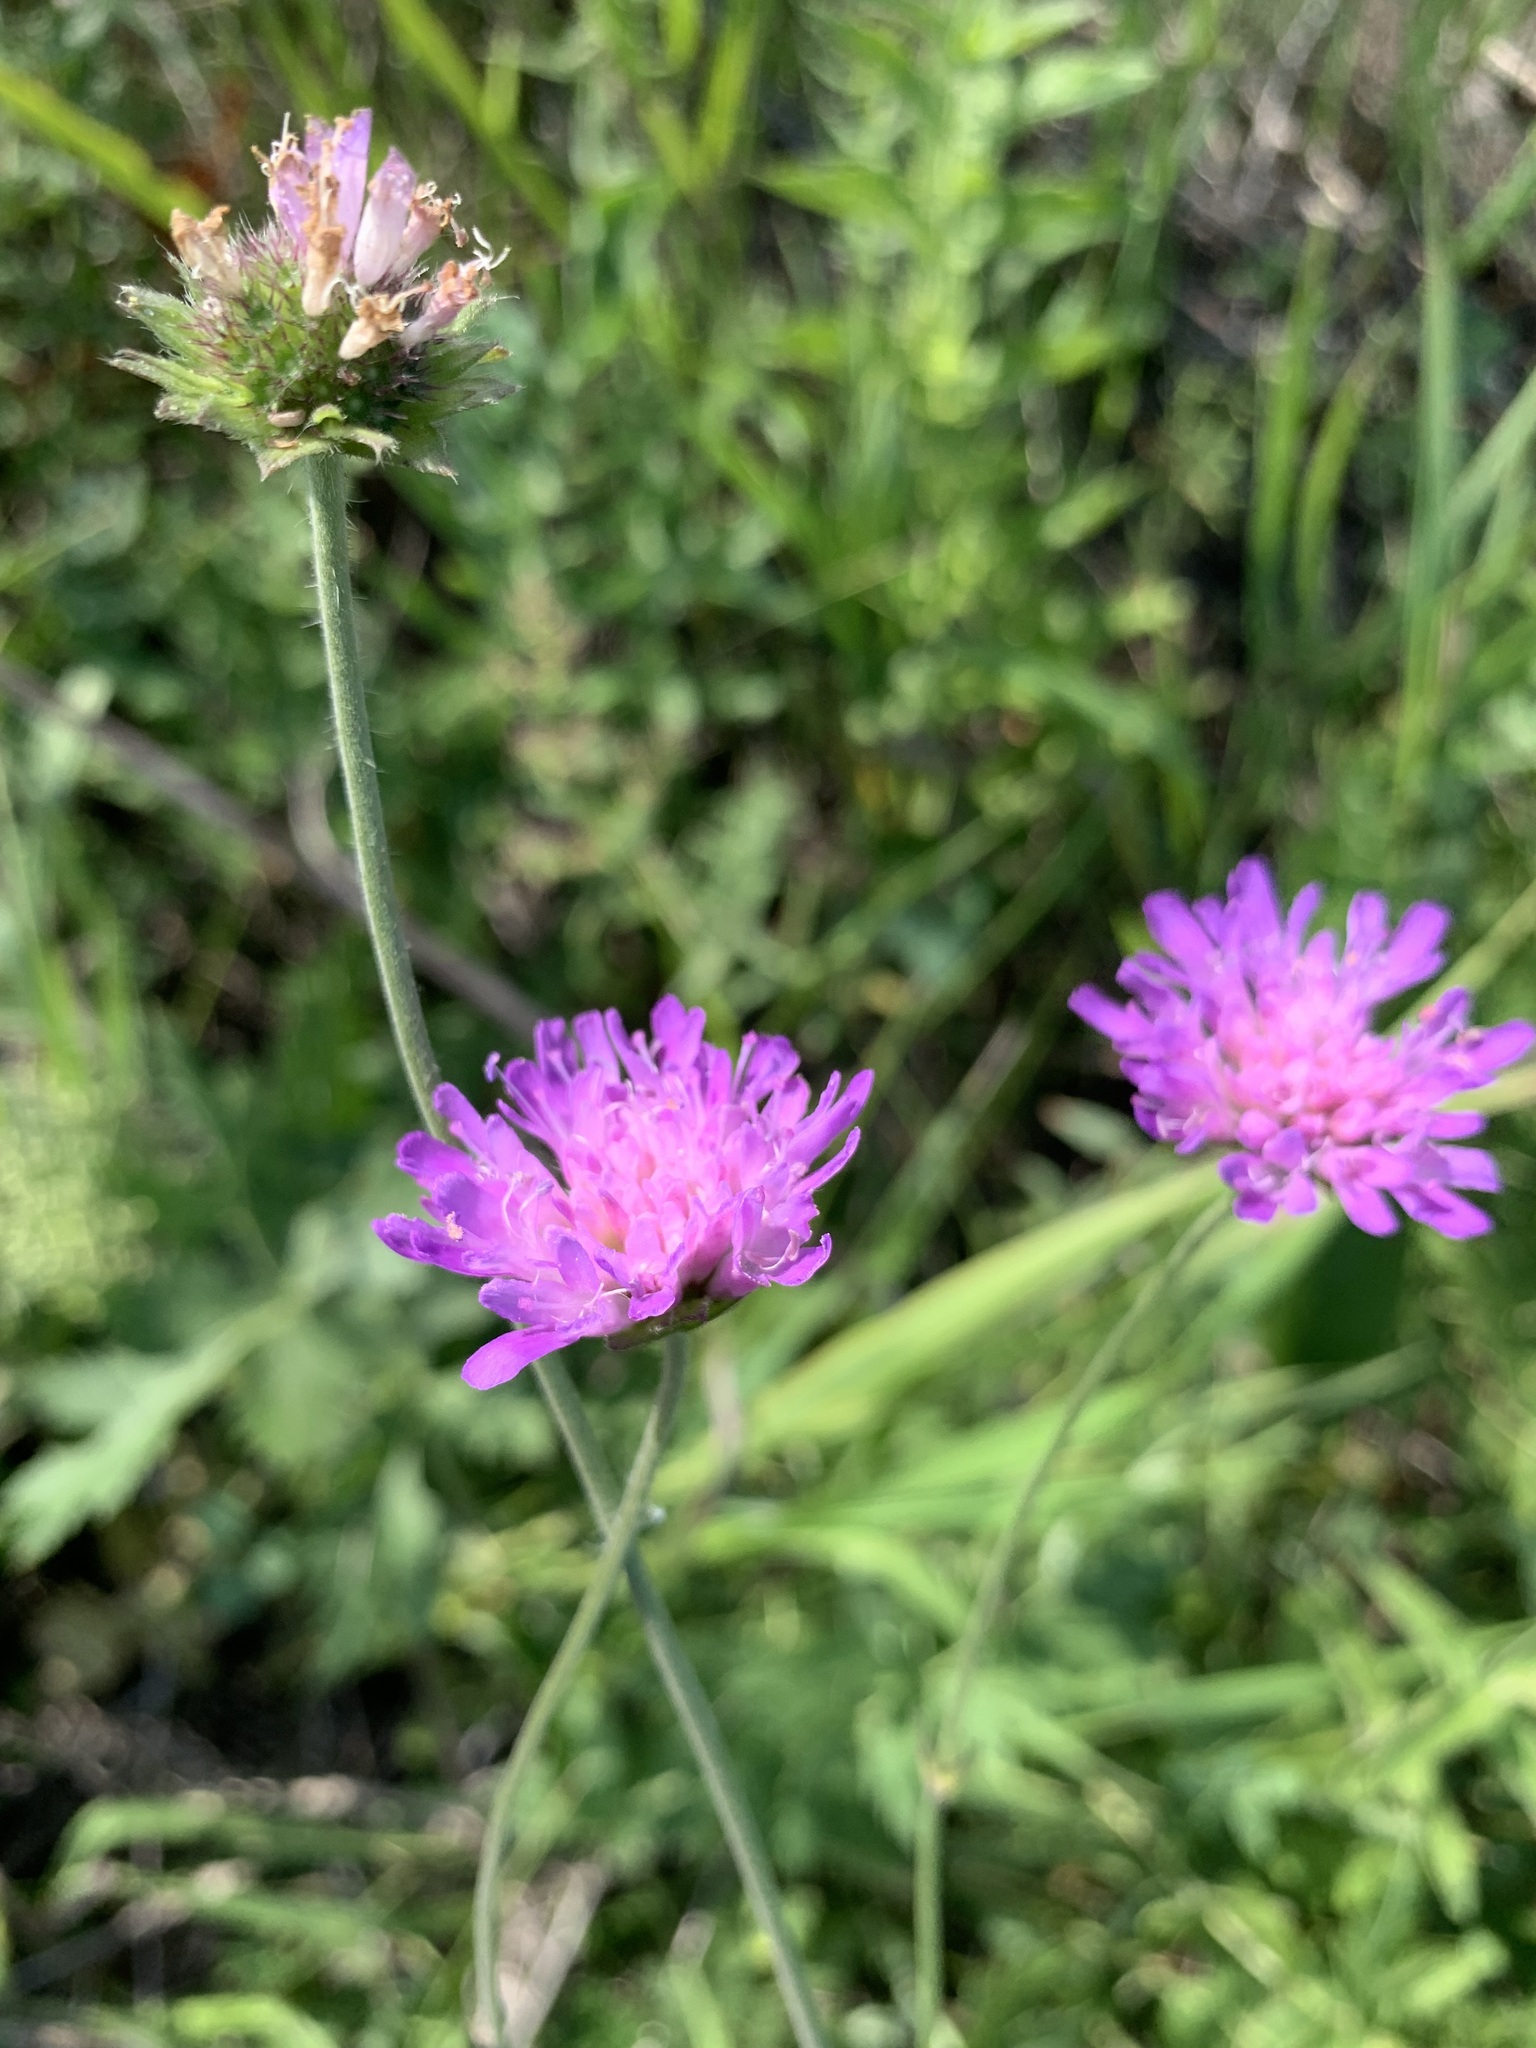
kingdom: Plantae
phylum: Tracheophyta
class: Magnoliopsida
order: Dipsacales
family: Caprifoliaceae
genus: Knautia
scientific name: Knautia arvensis
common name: Field scabiosa
